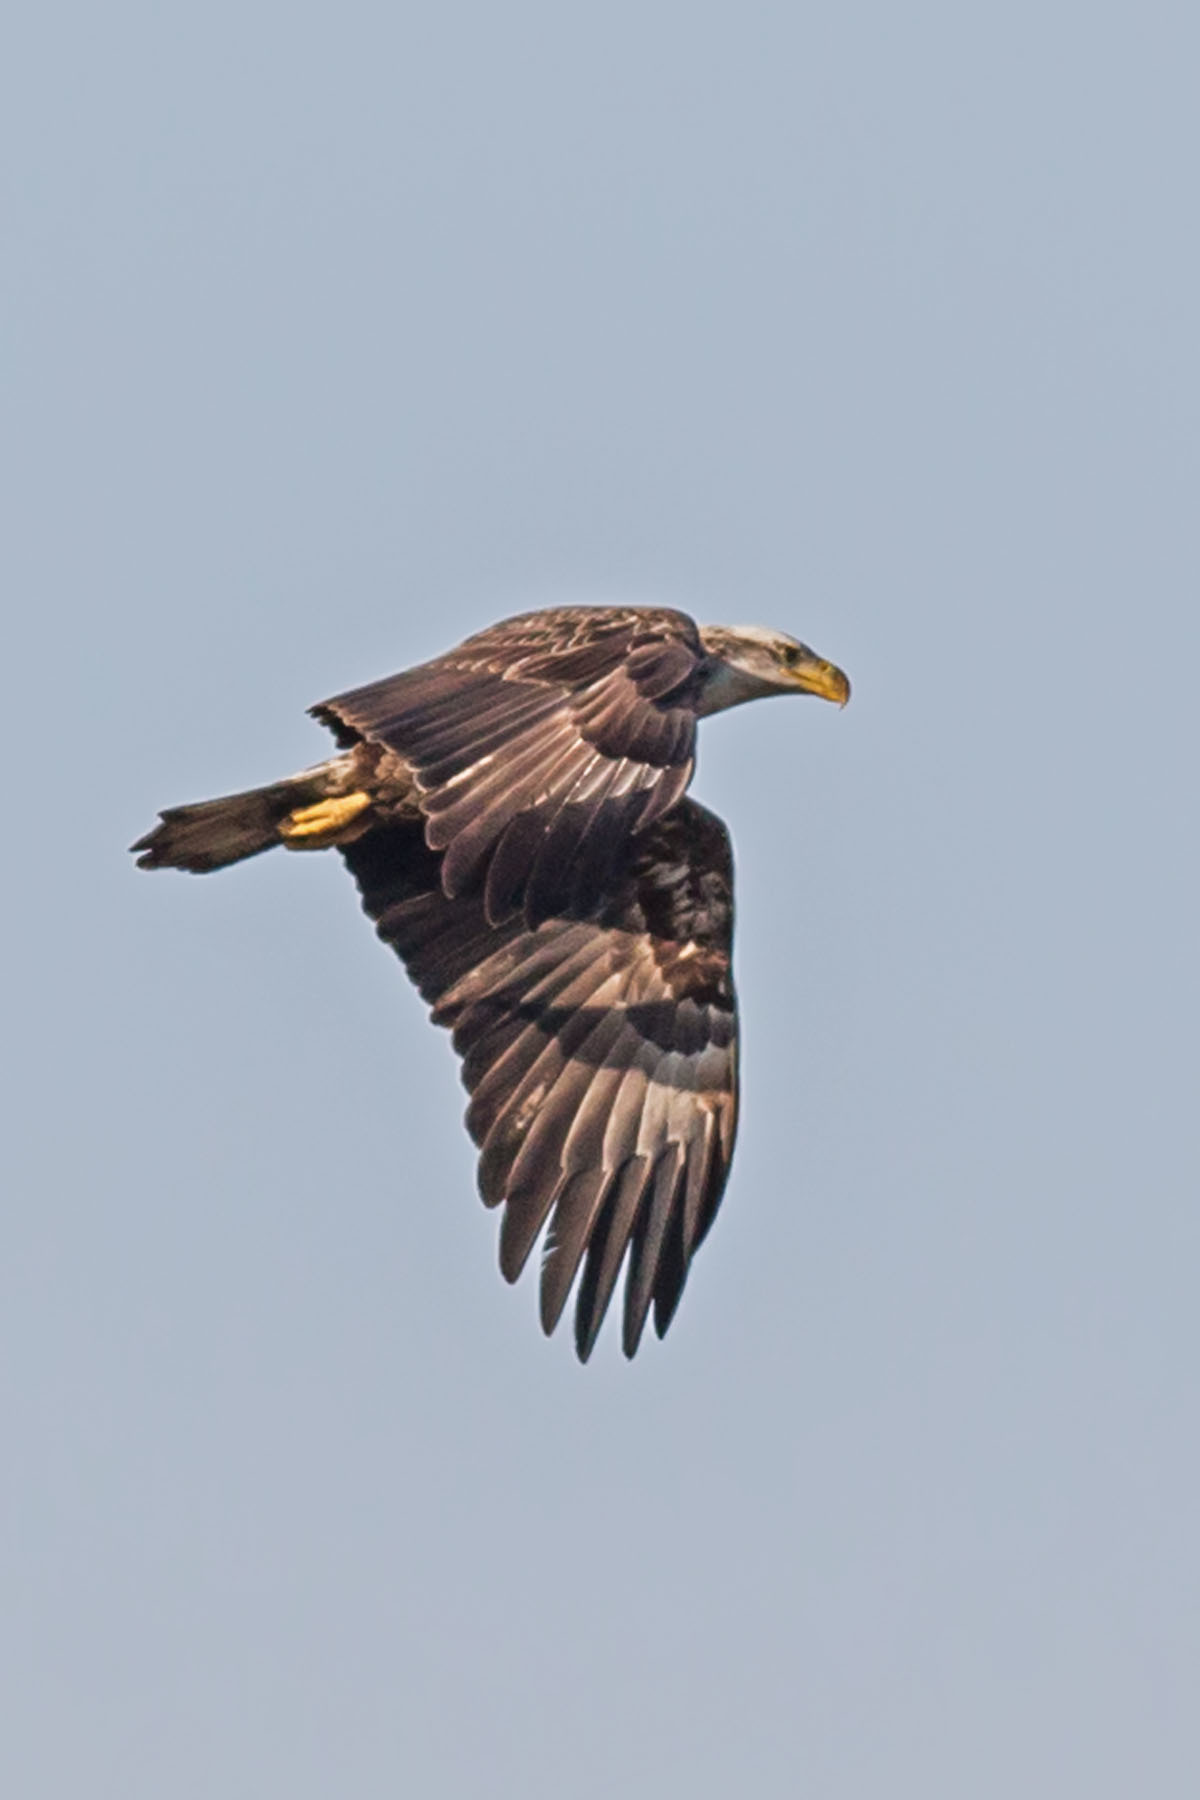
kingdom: Animalia
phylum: Chordata
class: Aves
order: Accipitriformes
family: Accipitridae
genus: Haliaeetus
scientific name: Haliaeetus leucocephalus
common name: Bald eagle
